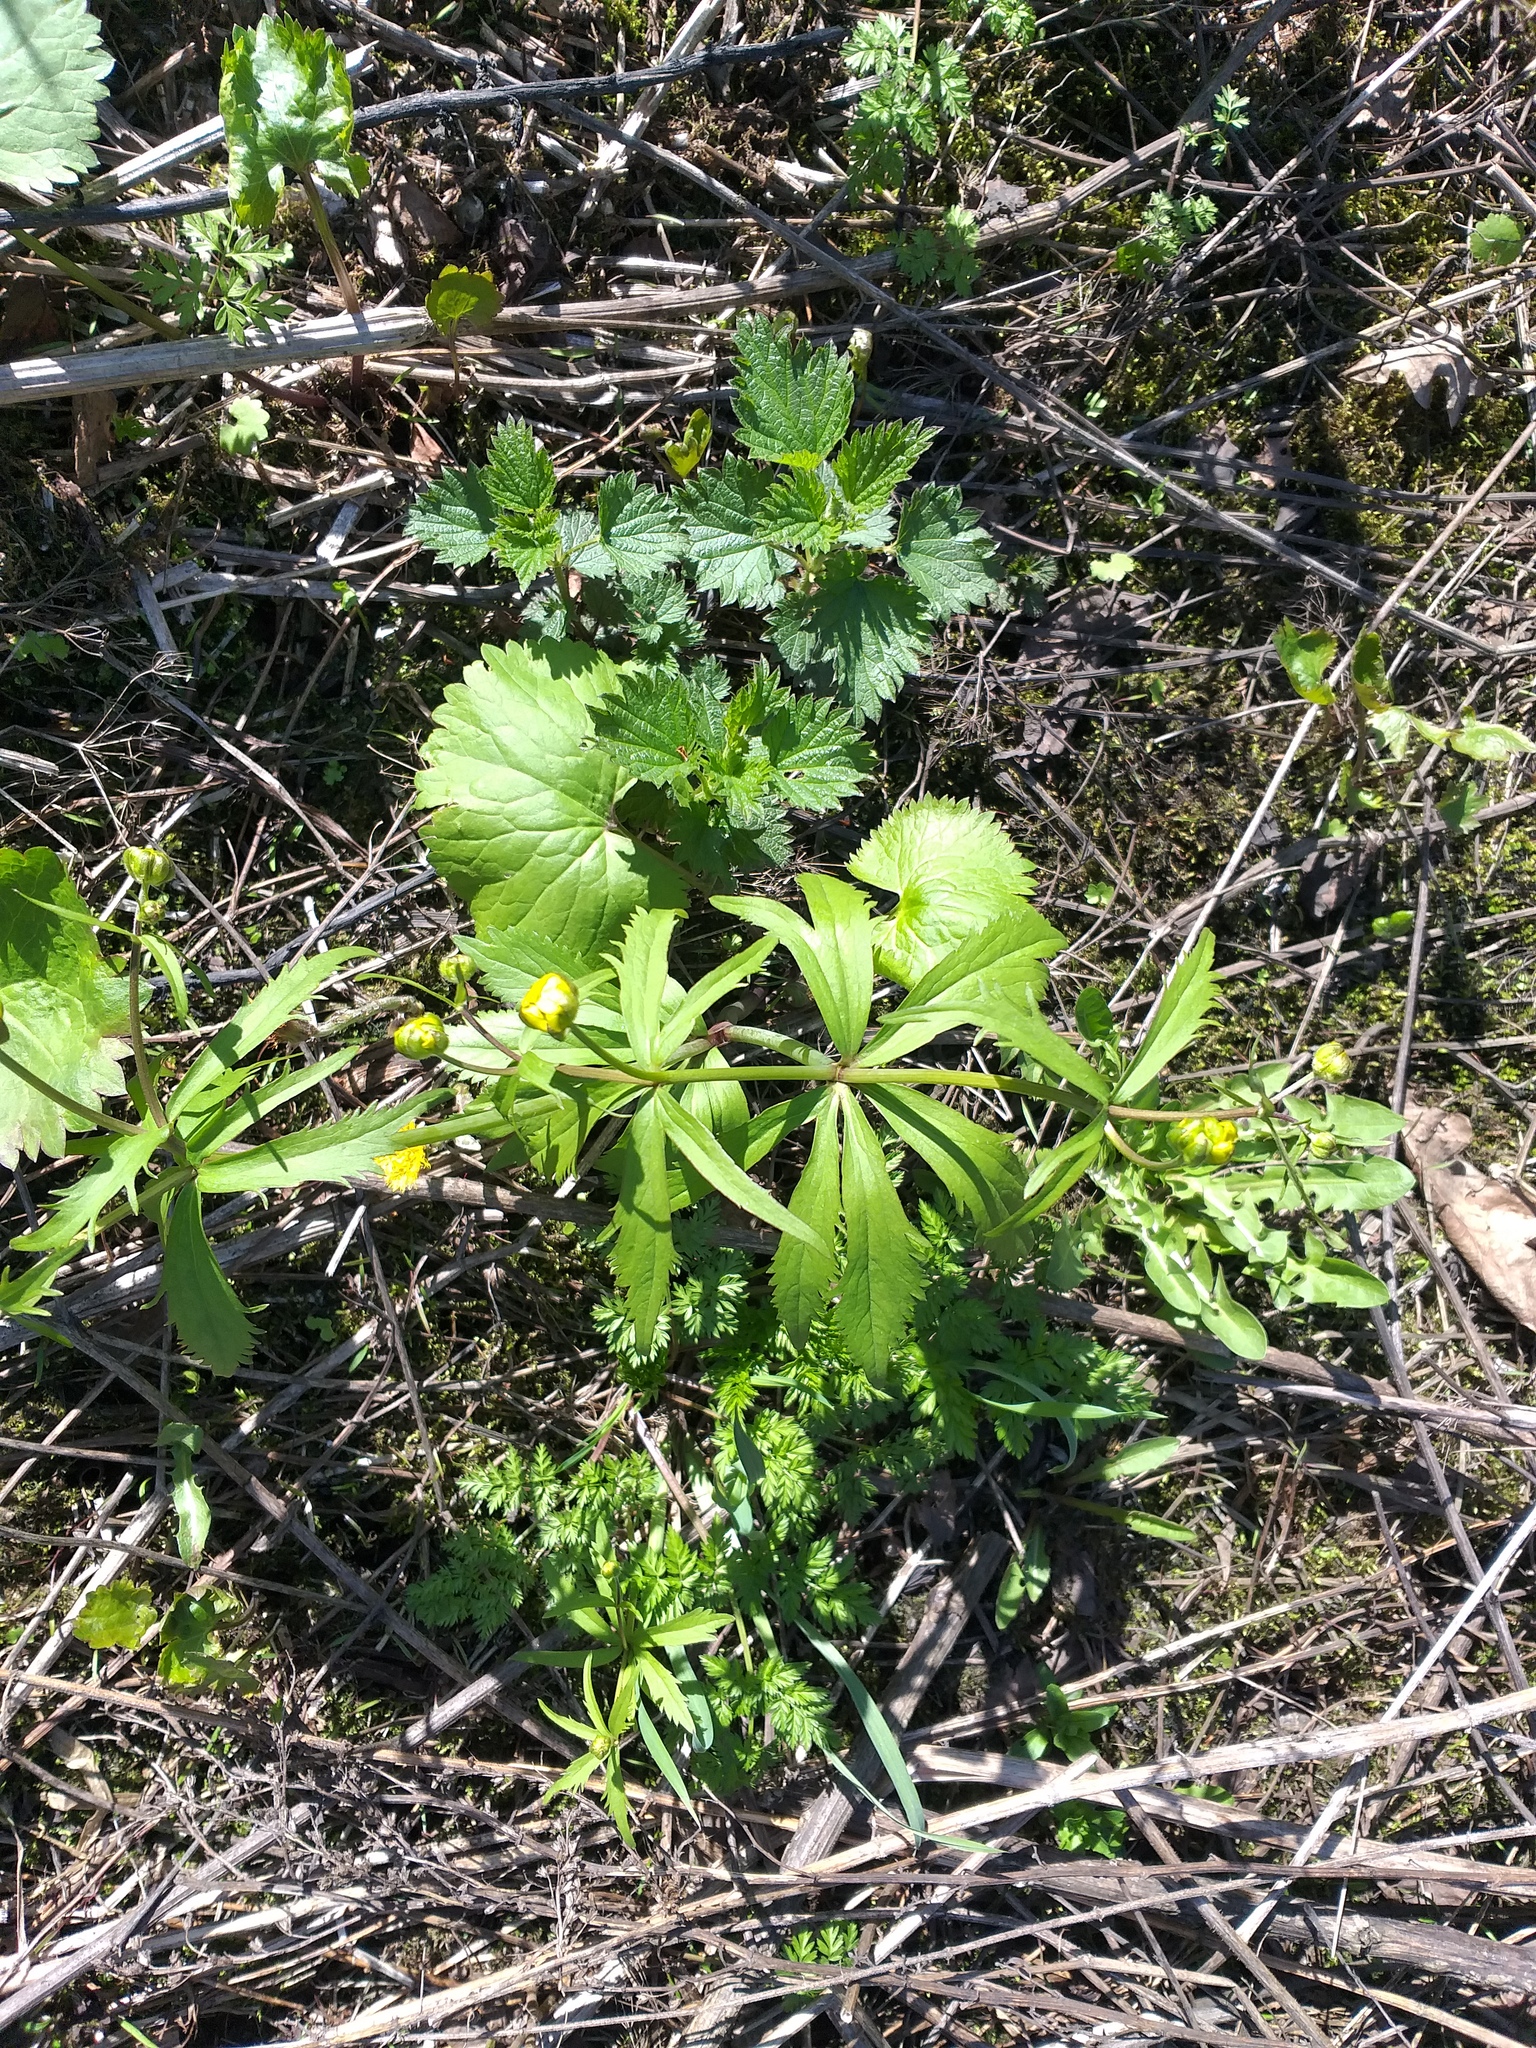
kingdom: Plantae
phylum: Tracheophyta
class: Magnoliopsida
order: Ranunculales
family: Ranunculaceae
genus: Ranunculus
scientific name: Ranunculus cassubicus
